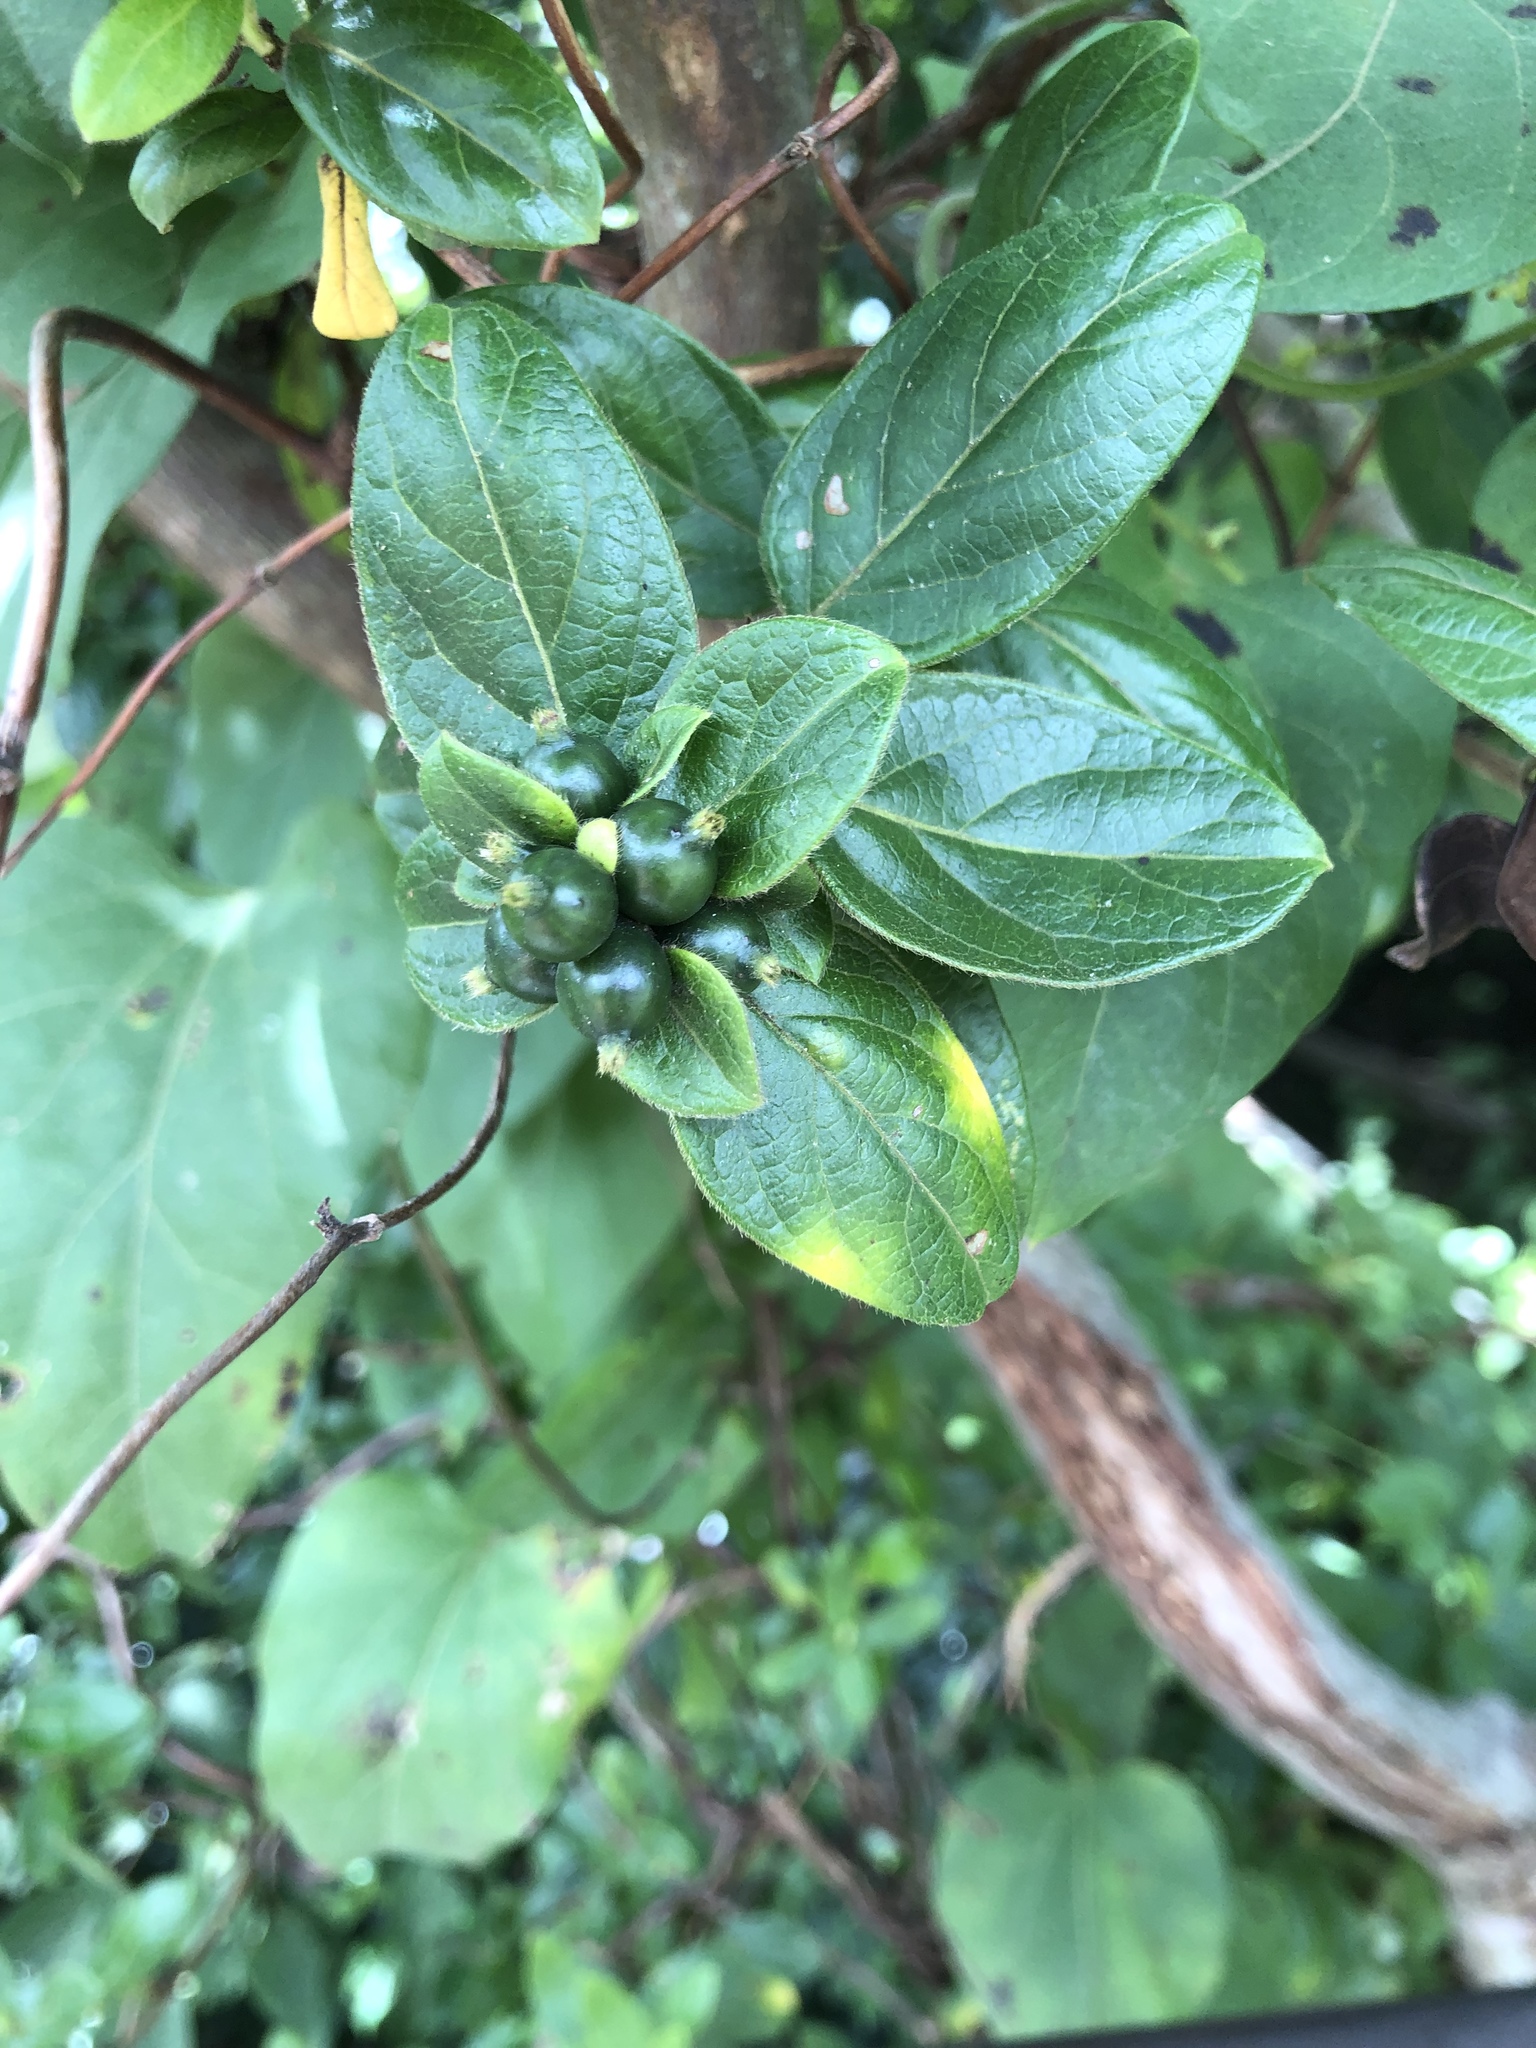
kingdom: Plantae
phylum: Tracheophyta
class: Magnoliopsida
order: Dipsacales
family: Caprifoliaceae
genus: Lonicera
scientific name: Lonicera japonica
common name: Japanese honeysuckle
